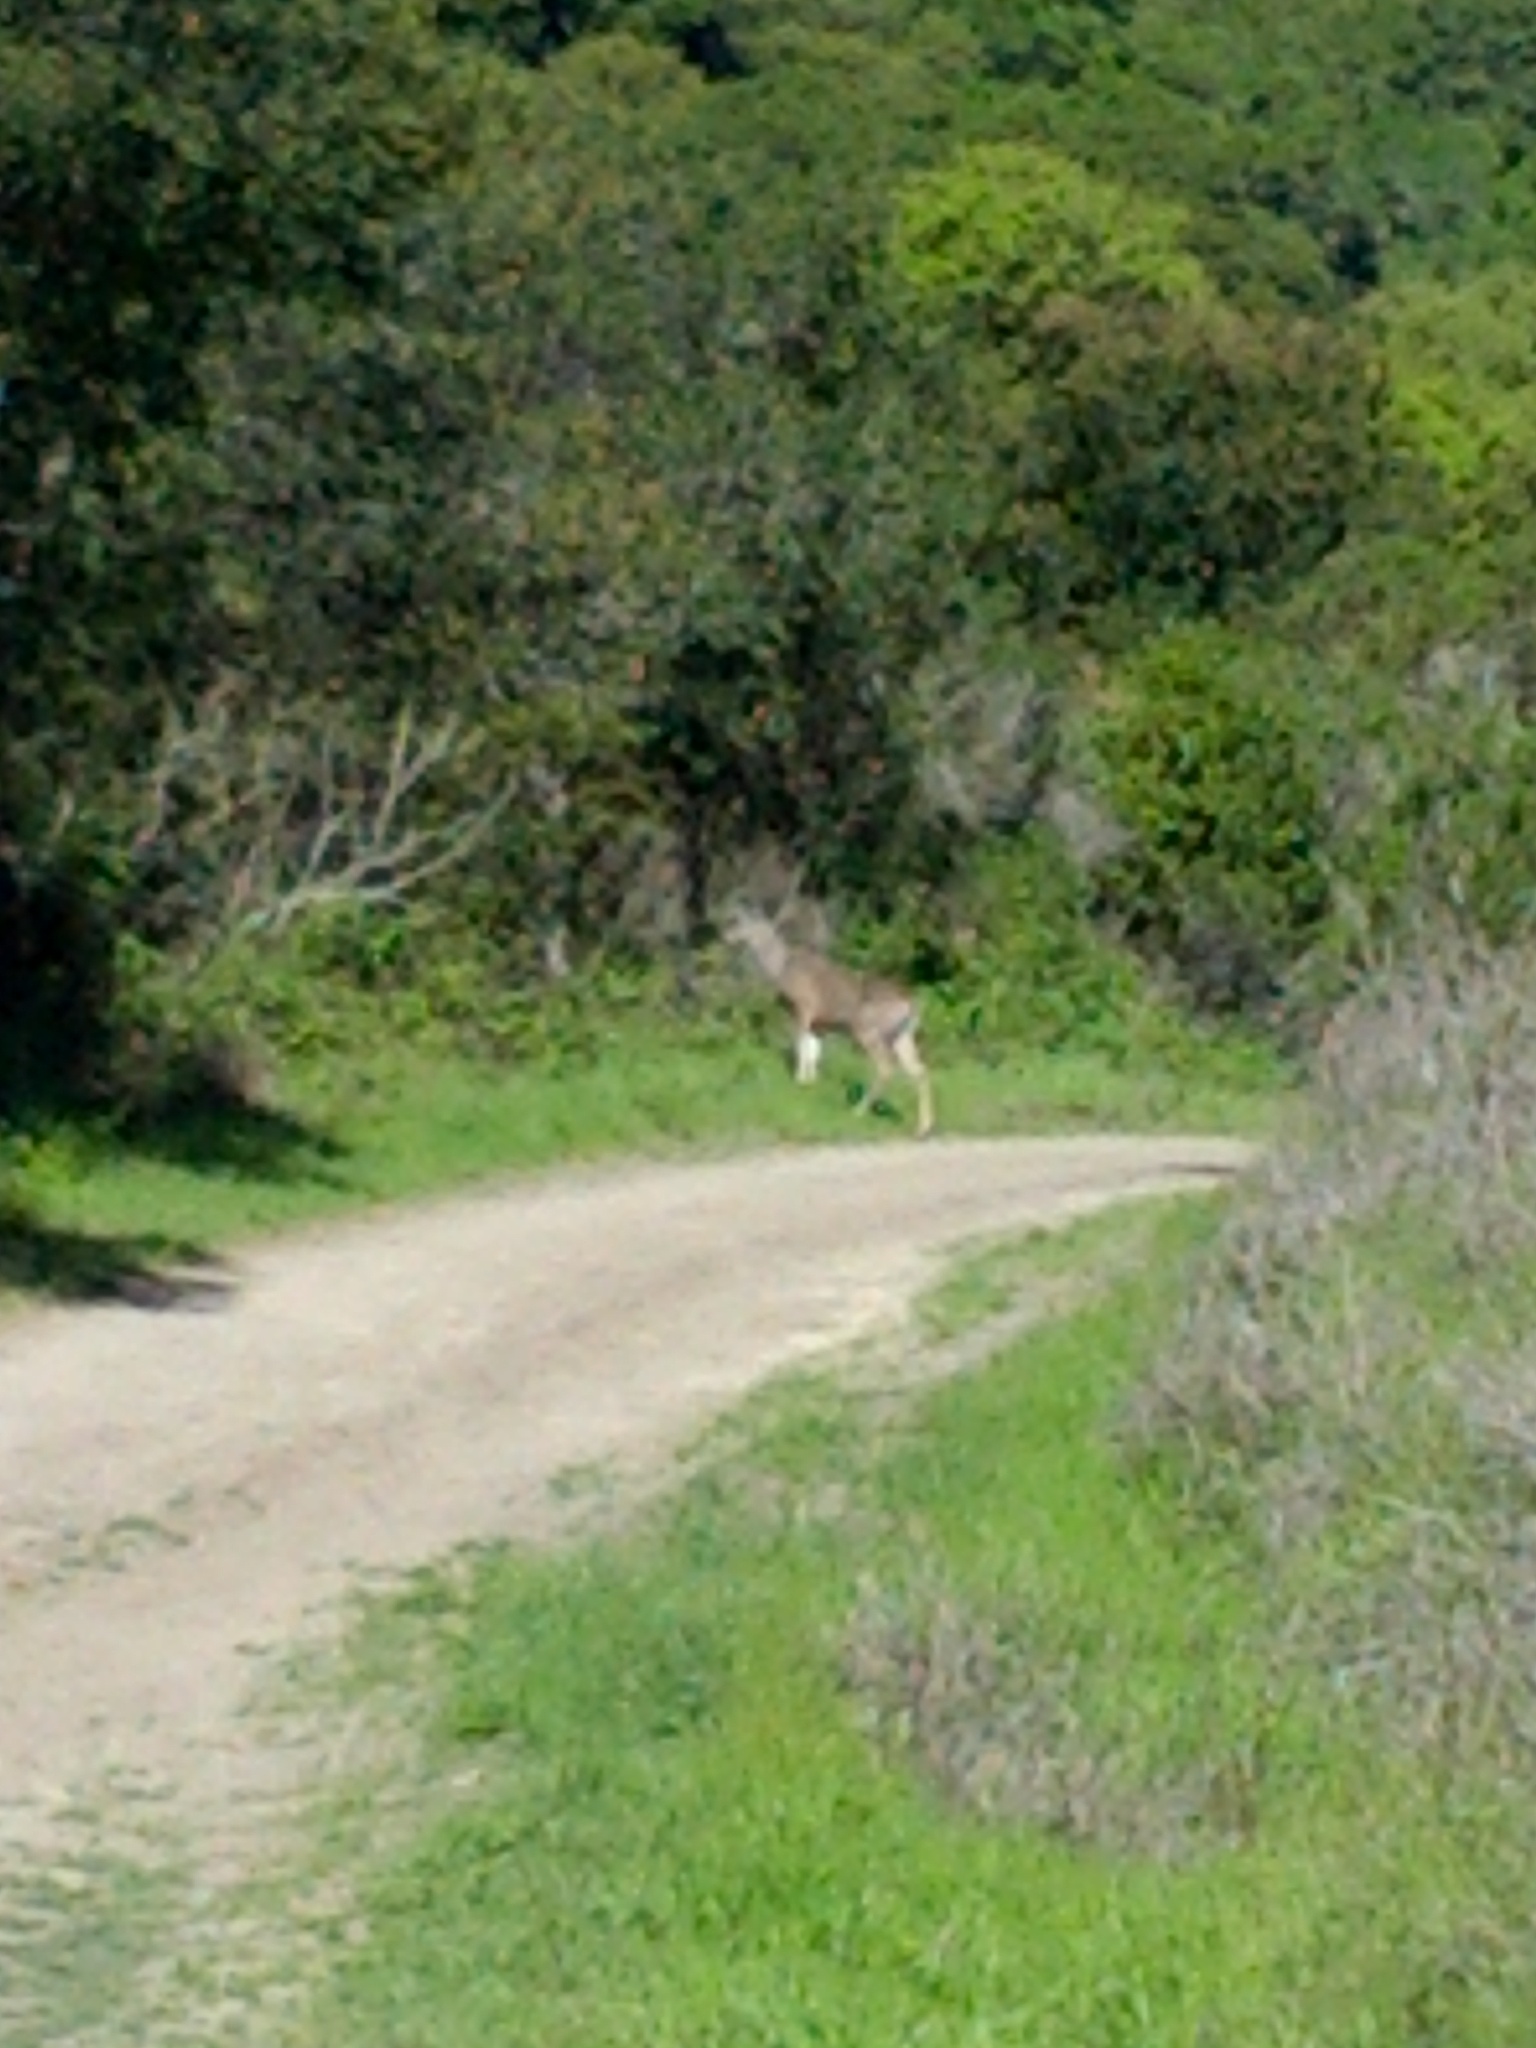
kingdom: Animalia
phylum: Chordata
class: Mammalia
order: Artiodactyla
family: Cervidae
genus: Odocoileus
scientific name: Odocoileus hemionus
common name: Mule deer
